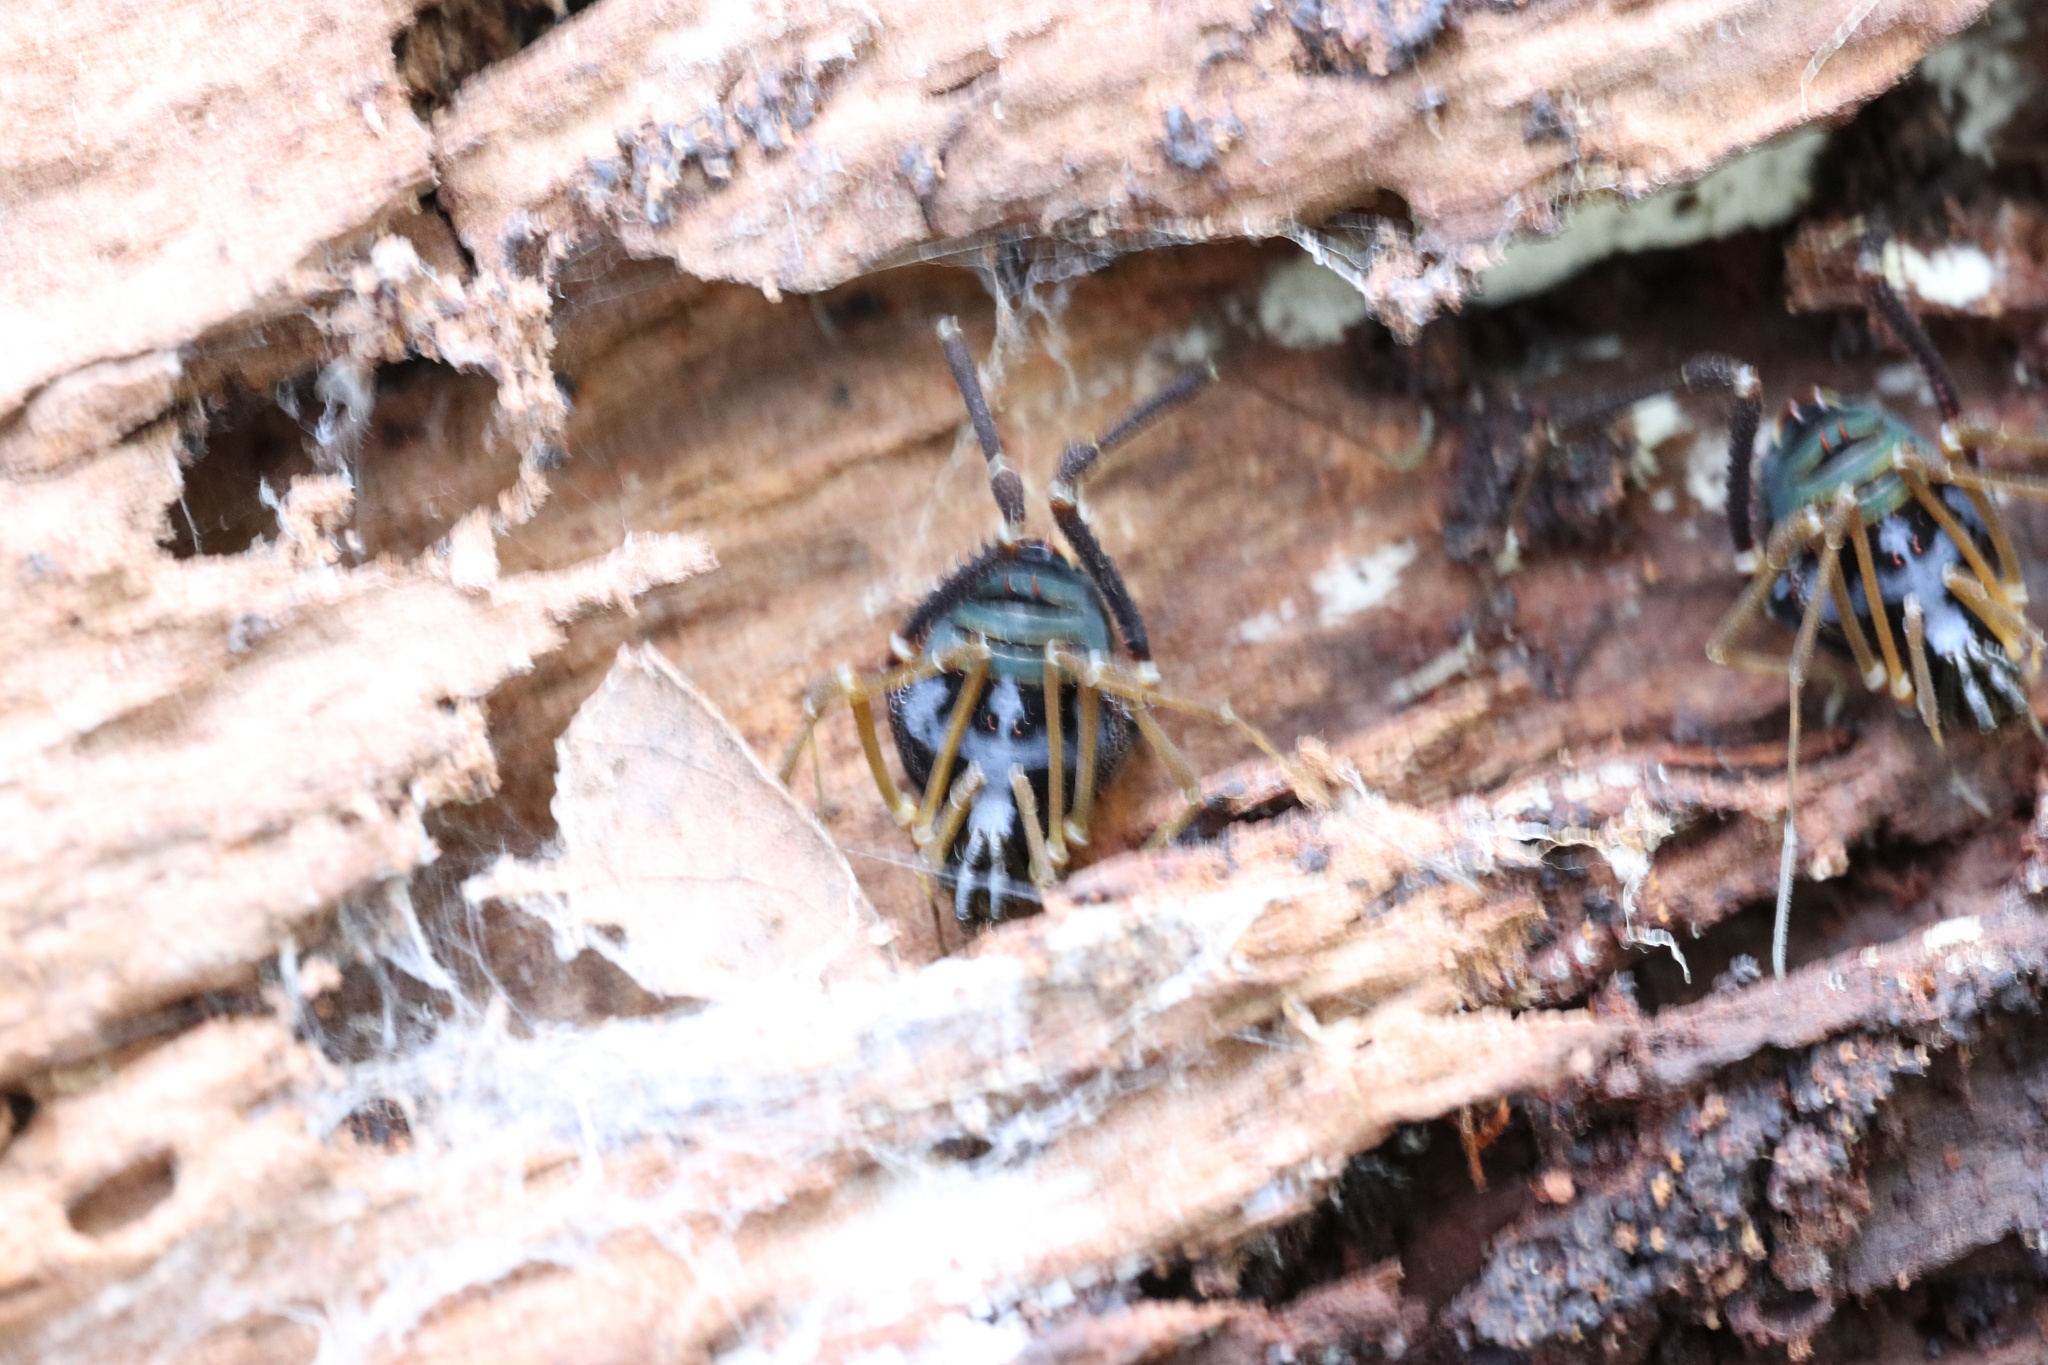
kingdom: Animalia
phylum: Arthropoda
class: Arachnida
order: Opiliones
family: Gonyleptidae
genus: Sadocus
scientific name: Sadocus asperatus
